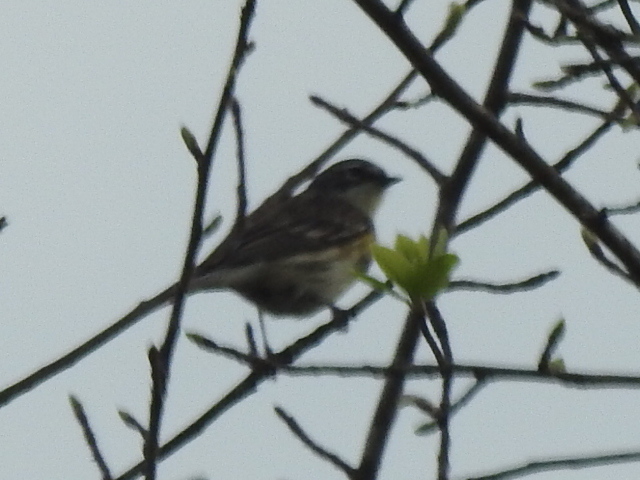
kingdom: Animalia
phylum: Chordata
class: Aves
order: Passeriformes
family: Parulidae
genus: Setophaga
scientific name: Setophaga coronata
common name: Myrtle warbler
